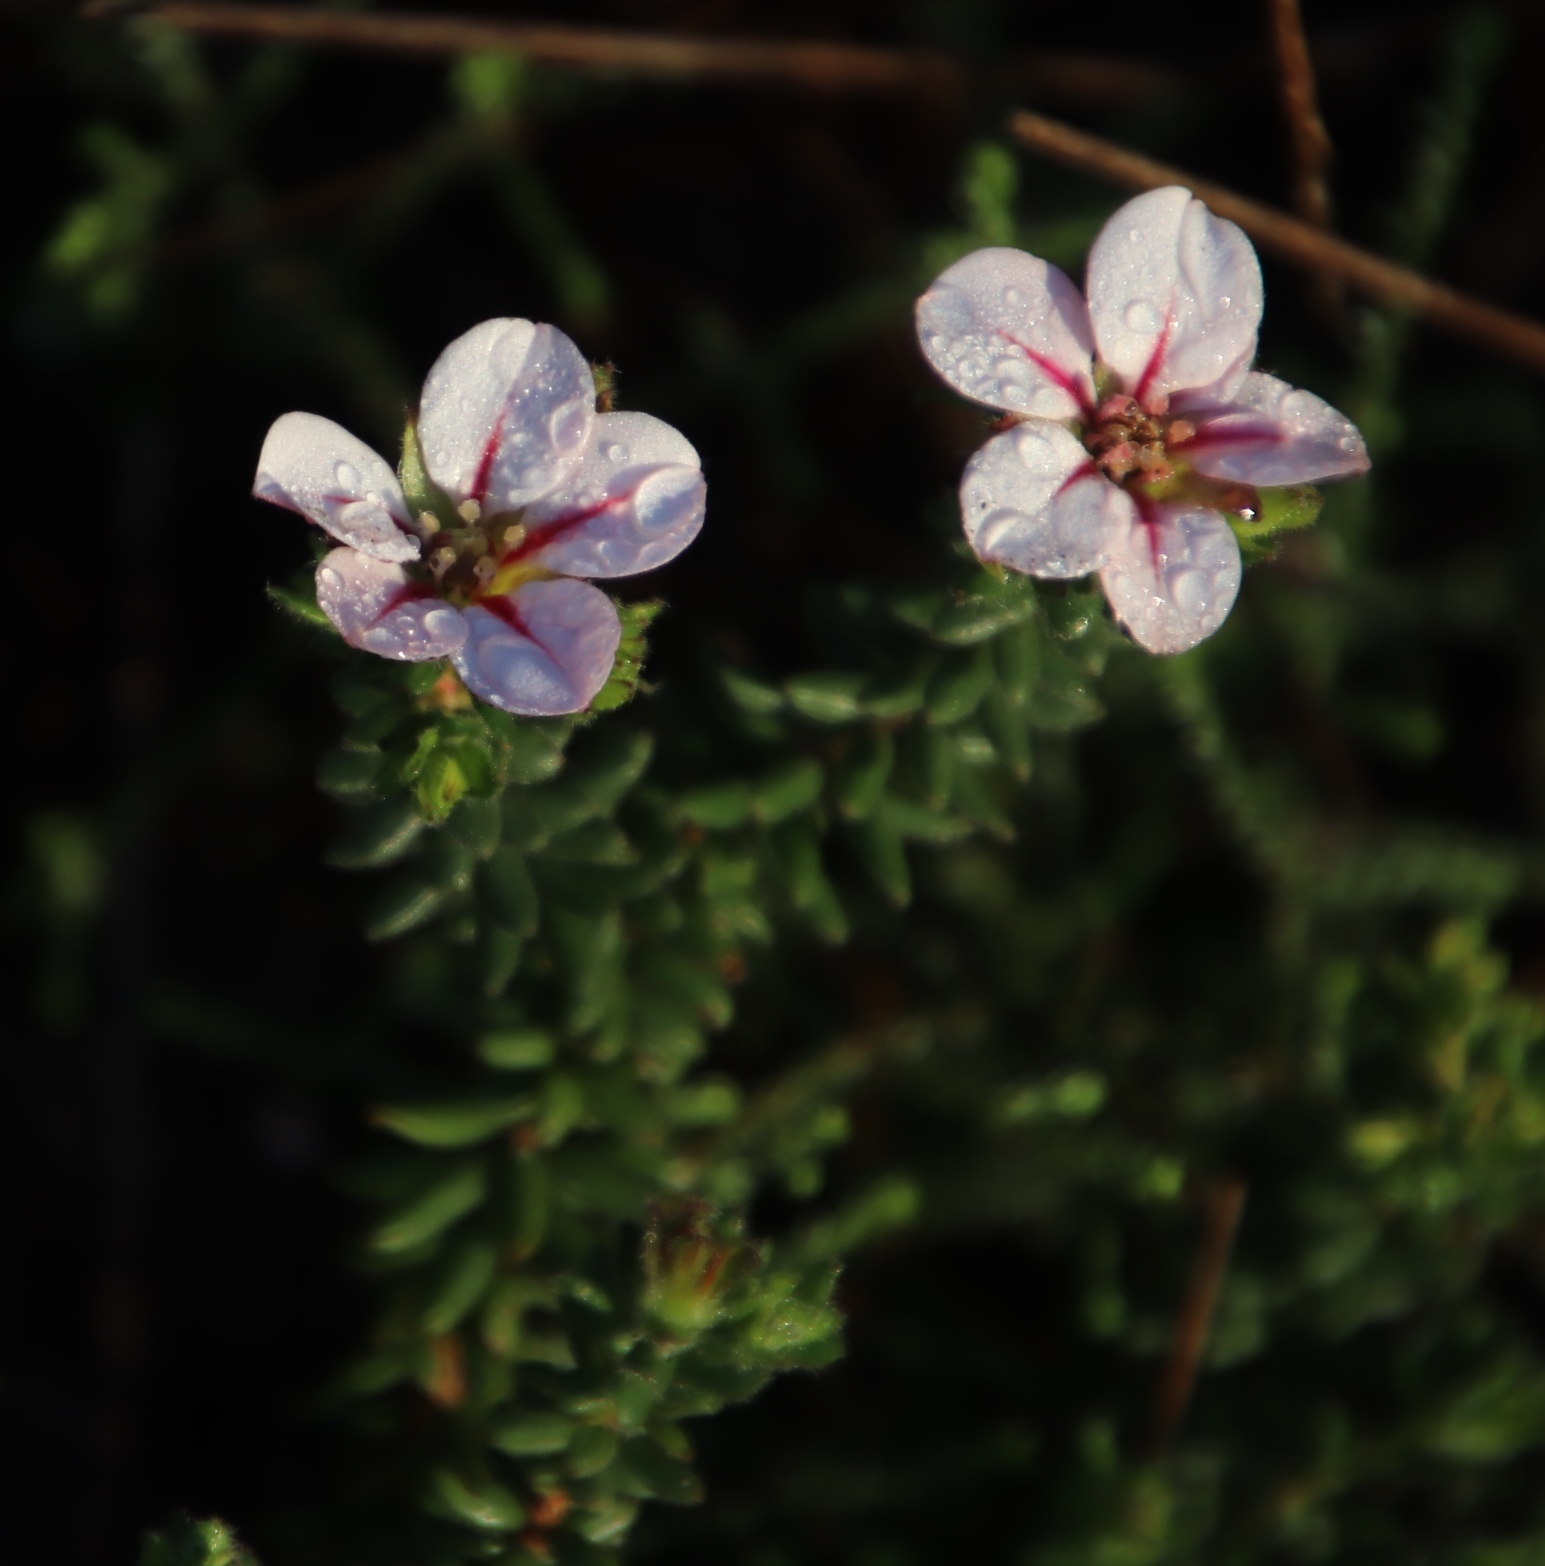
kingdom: Plantae
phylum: Tracheophyta
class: Magnoliopsida
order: Sapindales
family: Rutaceae
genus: Adenandra
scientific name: Adenandra villosa
